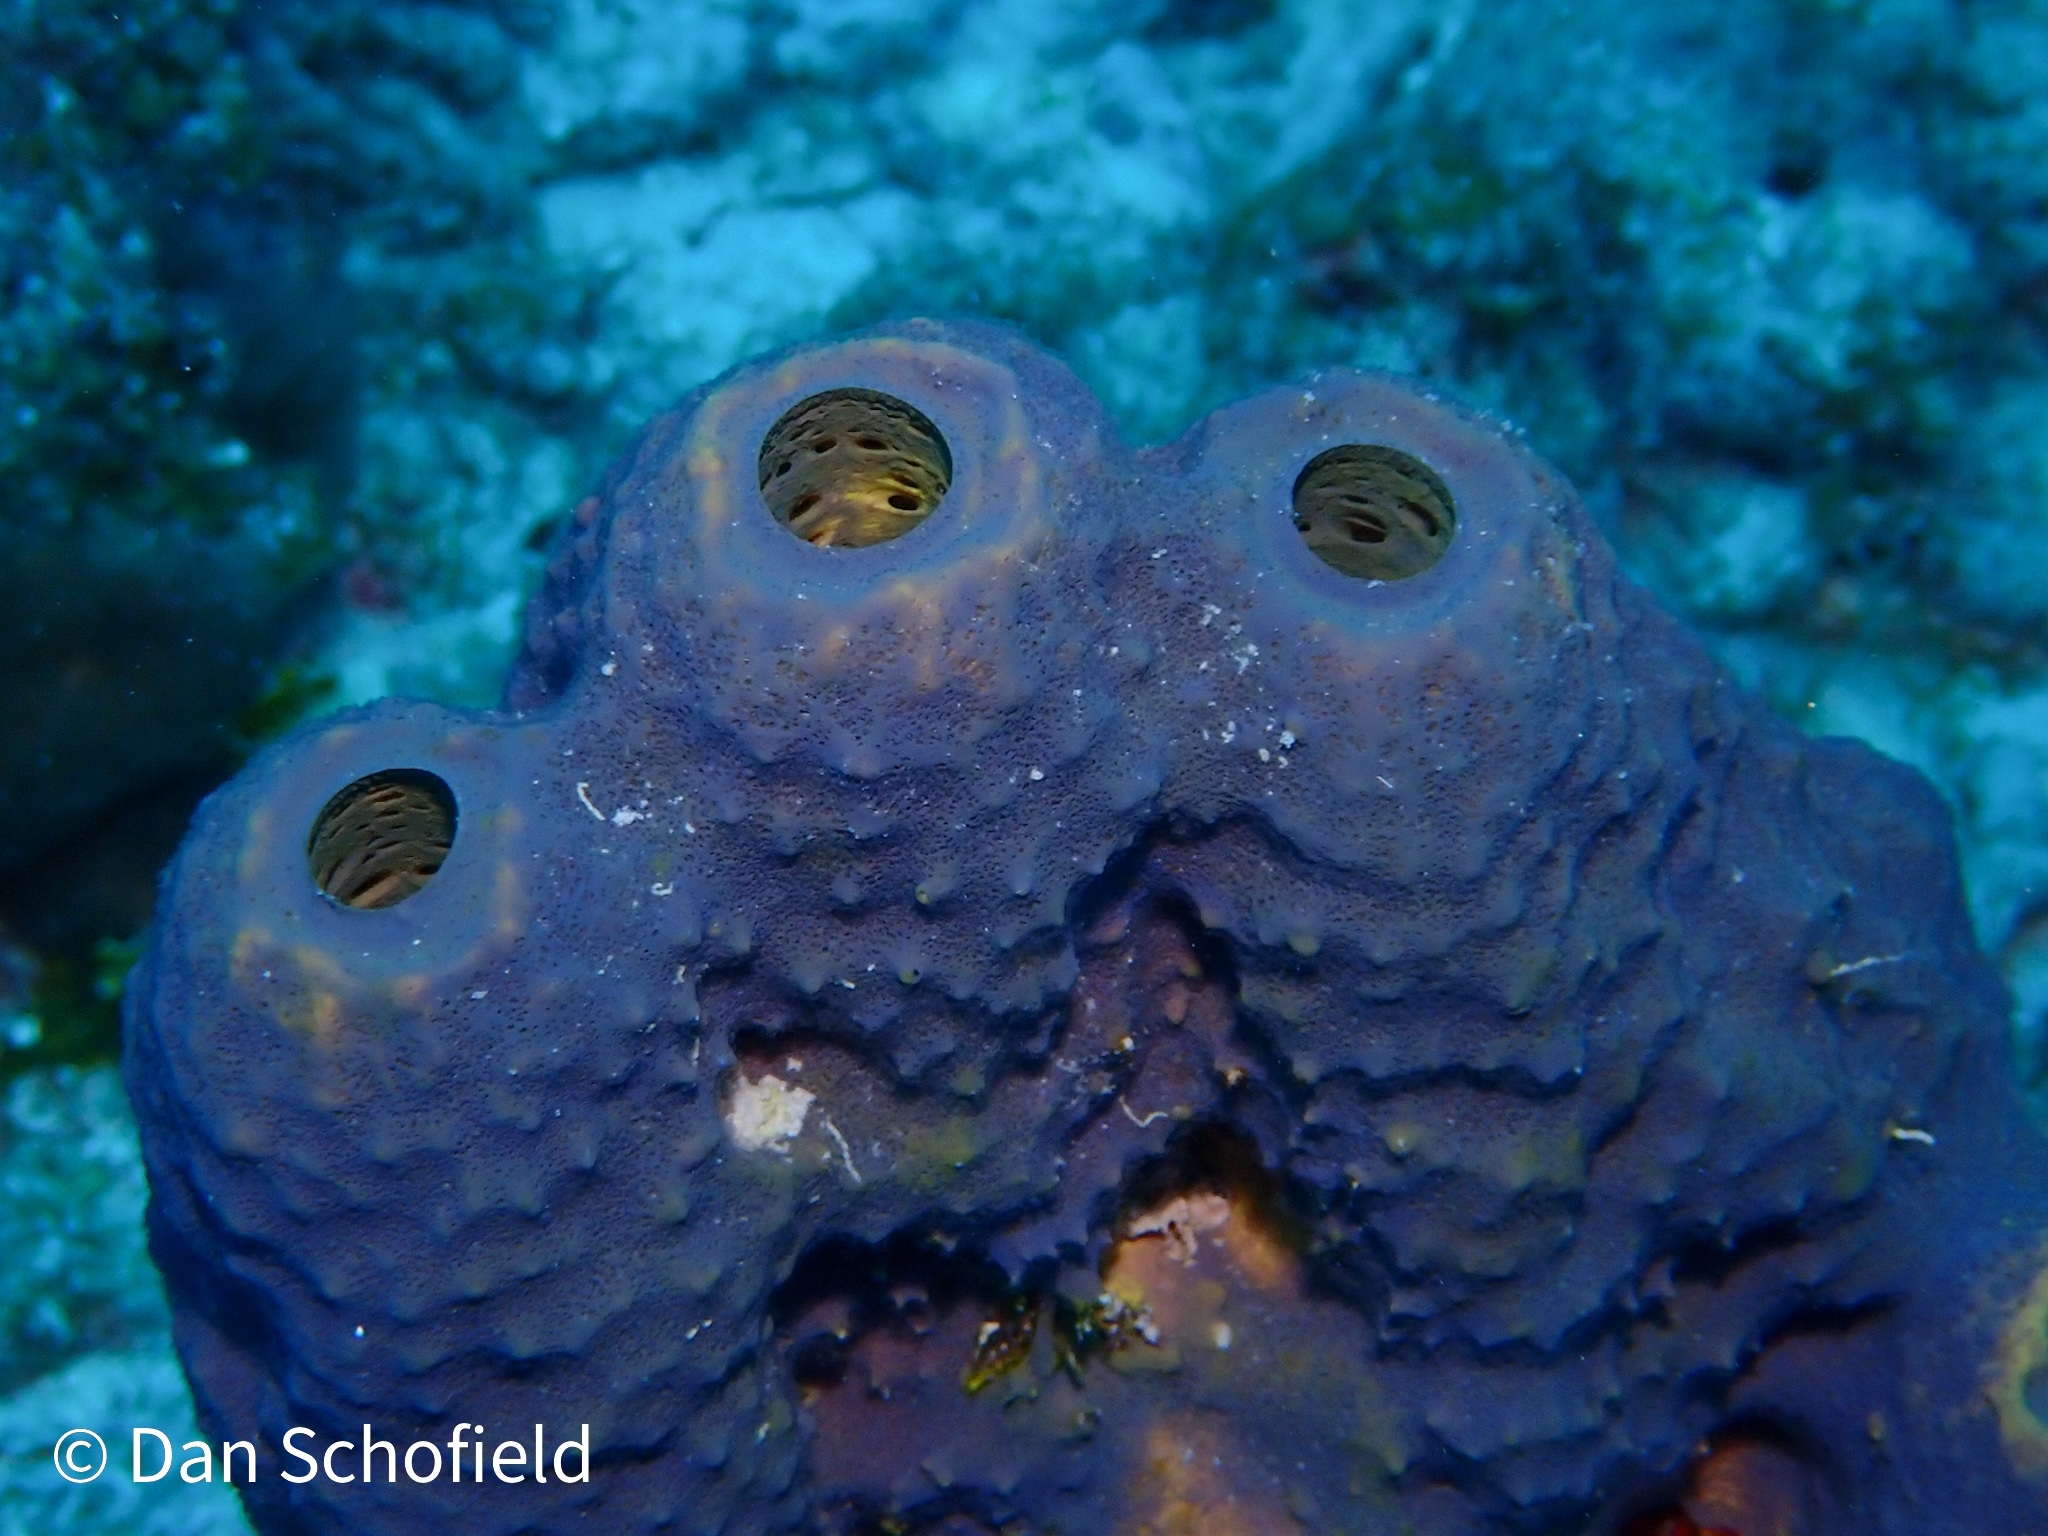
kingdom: Animalia
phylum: Porifera
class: Demospongiae
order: Verongiida
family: Aplysinidae
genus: Aiolochroia
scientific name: Aiolochroia crassa
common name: Branching tube sponge
